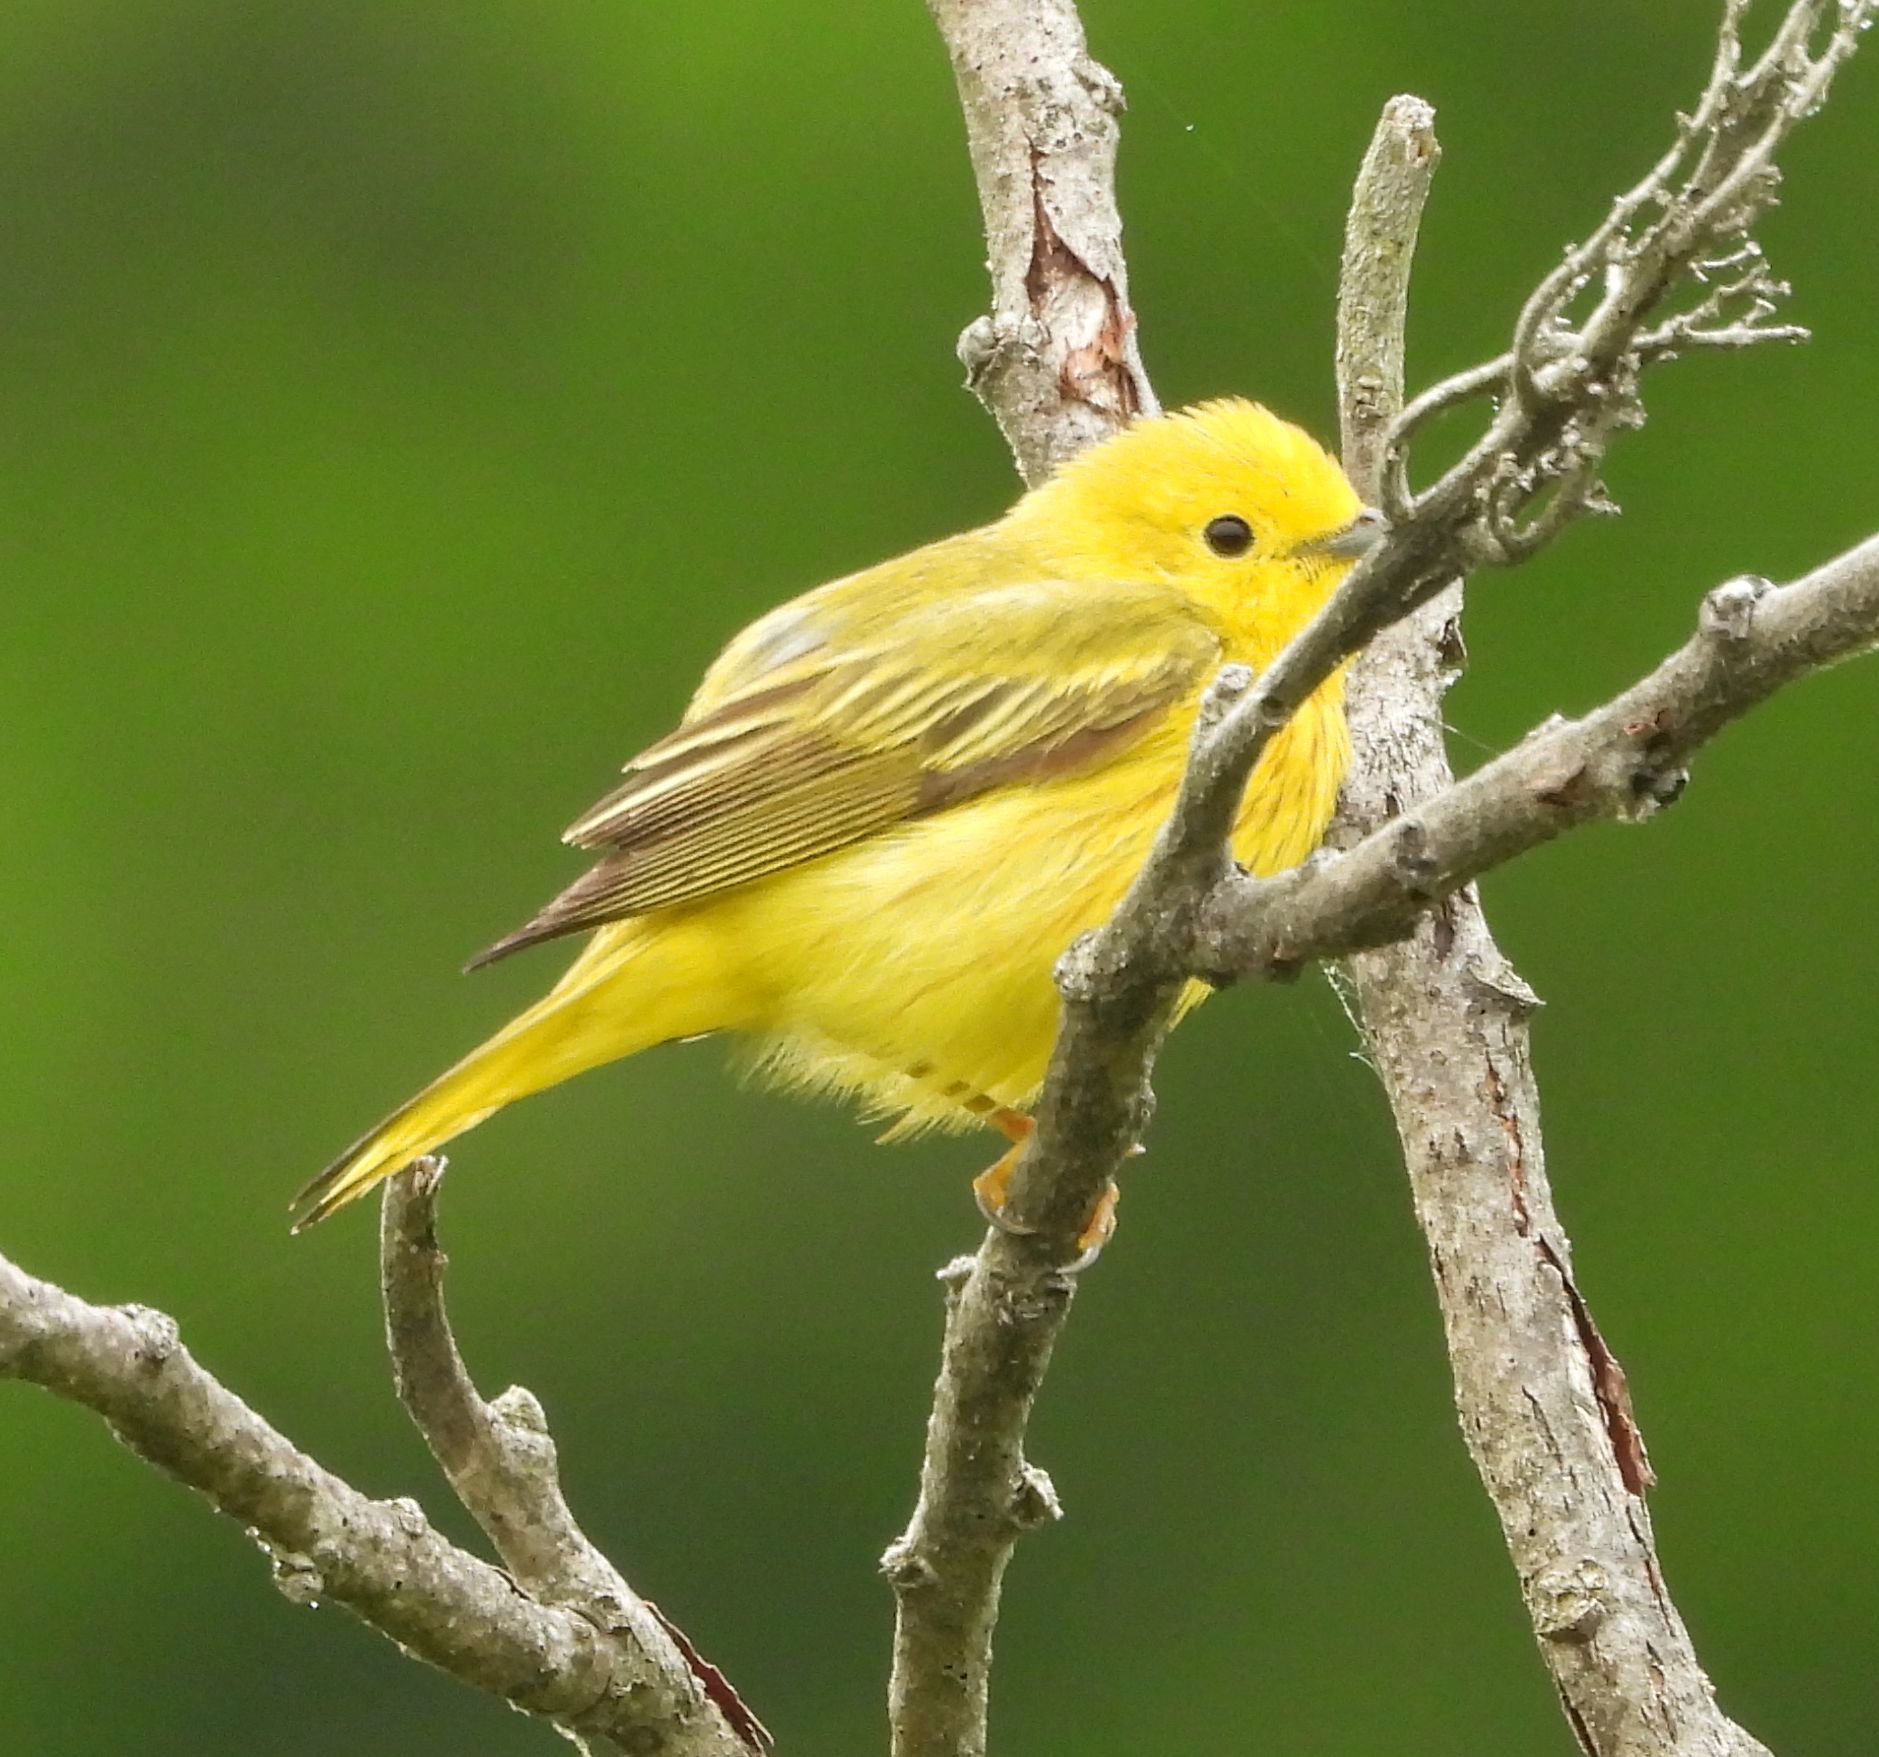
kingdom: Animalia
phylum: Chordata
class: Aves
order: Passeriformes
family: Parulidae
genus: Setophaga
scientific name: Setophaga petechia
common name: Yellow warbler
